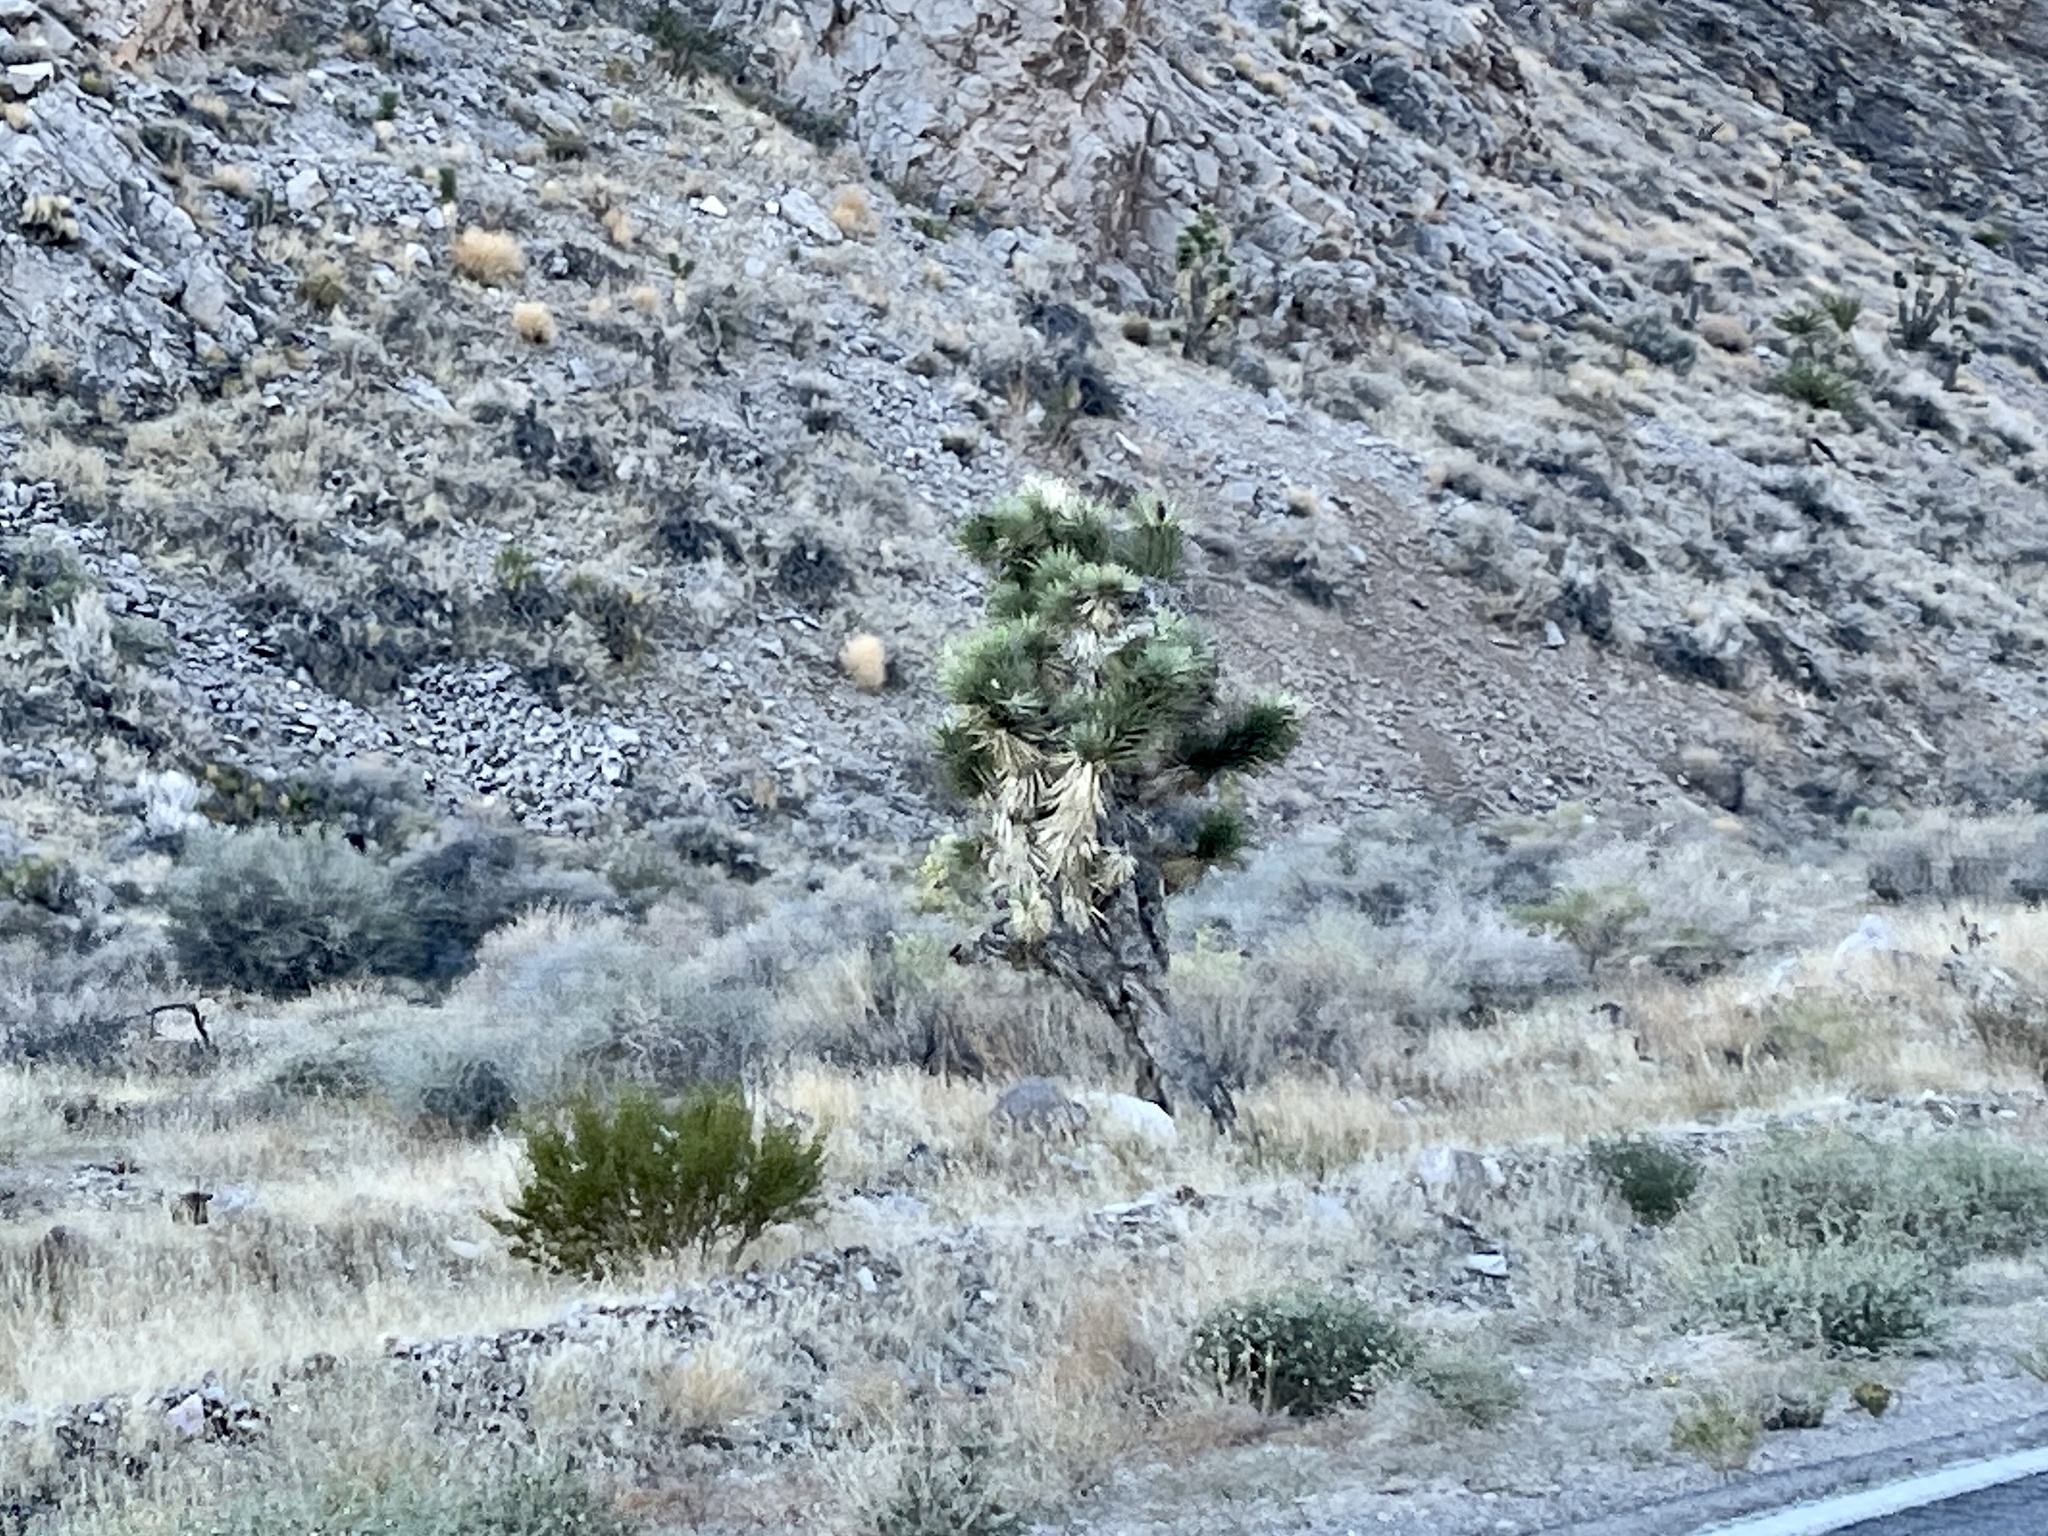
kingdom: Plantae
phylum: Tracheophyta
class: Liliopsida
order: Asparagales
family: Asparagaceae
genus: Yucca
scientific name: Yucca brevifolia
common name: Joshua tree
